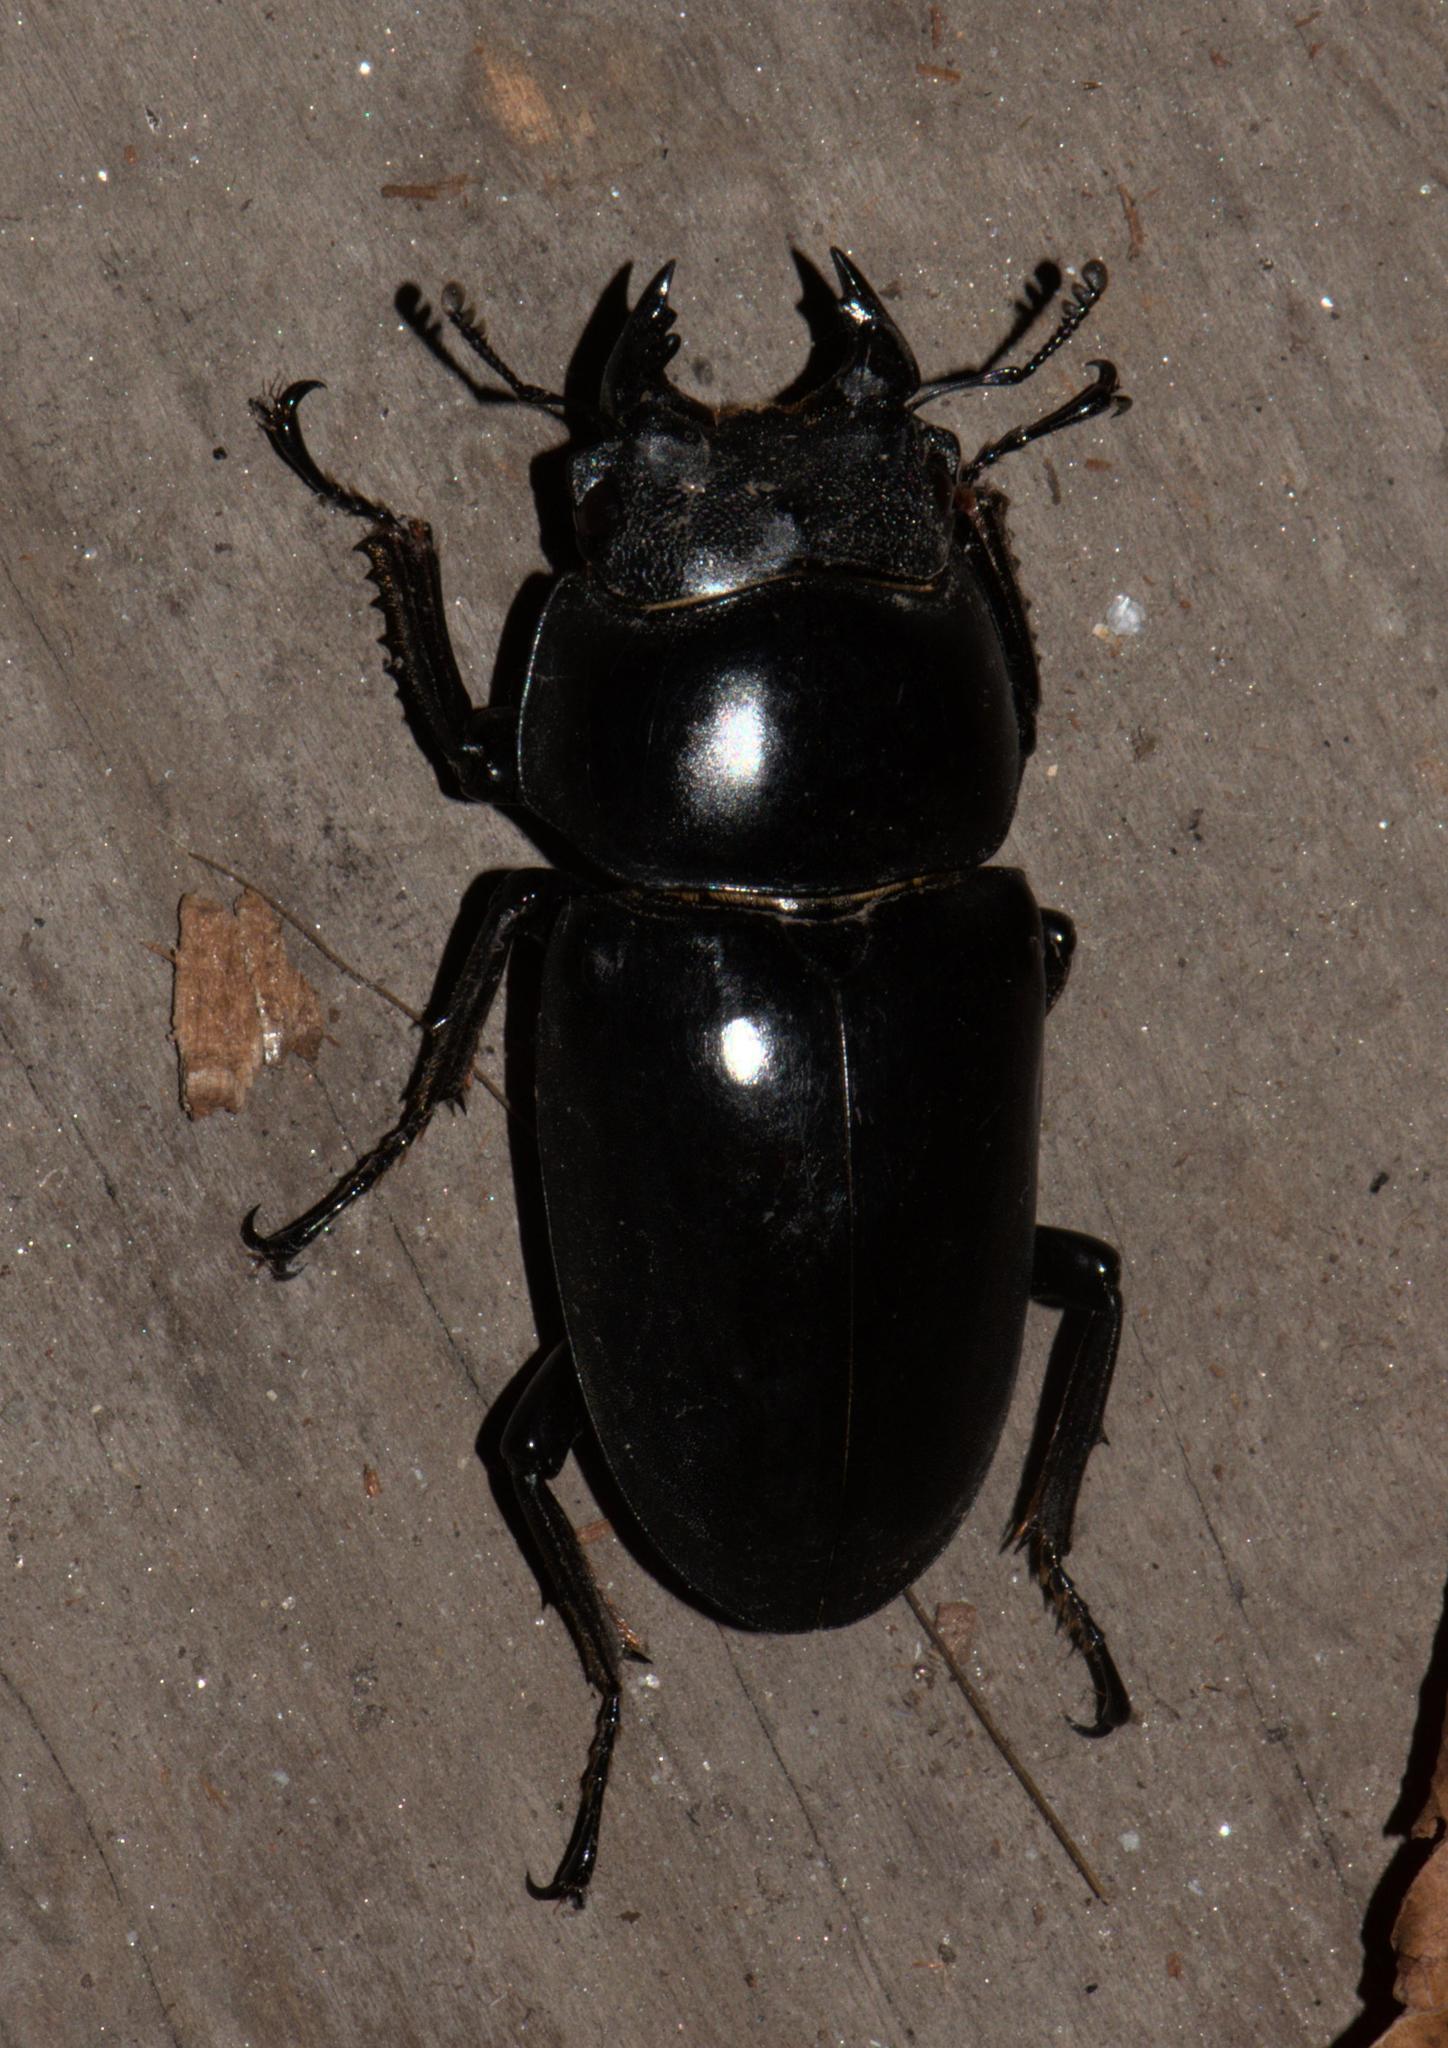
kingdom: Animalia
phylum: Arthropoda
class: Insecta
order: Coleoptera
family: Lucanidae
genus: Dorcus
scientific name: Dorcus nepalensis
